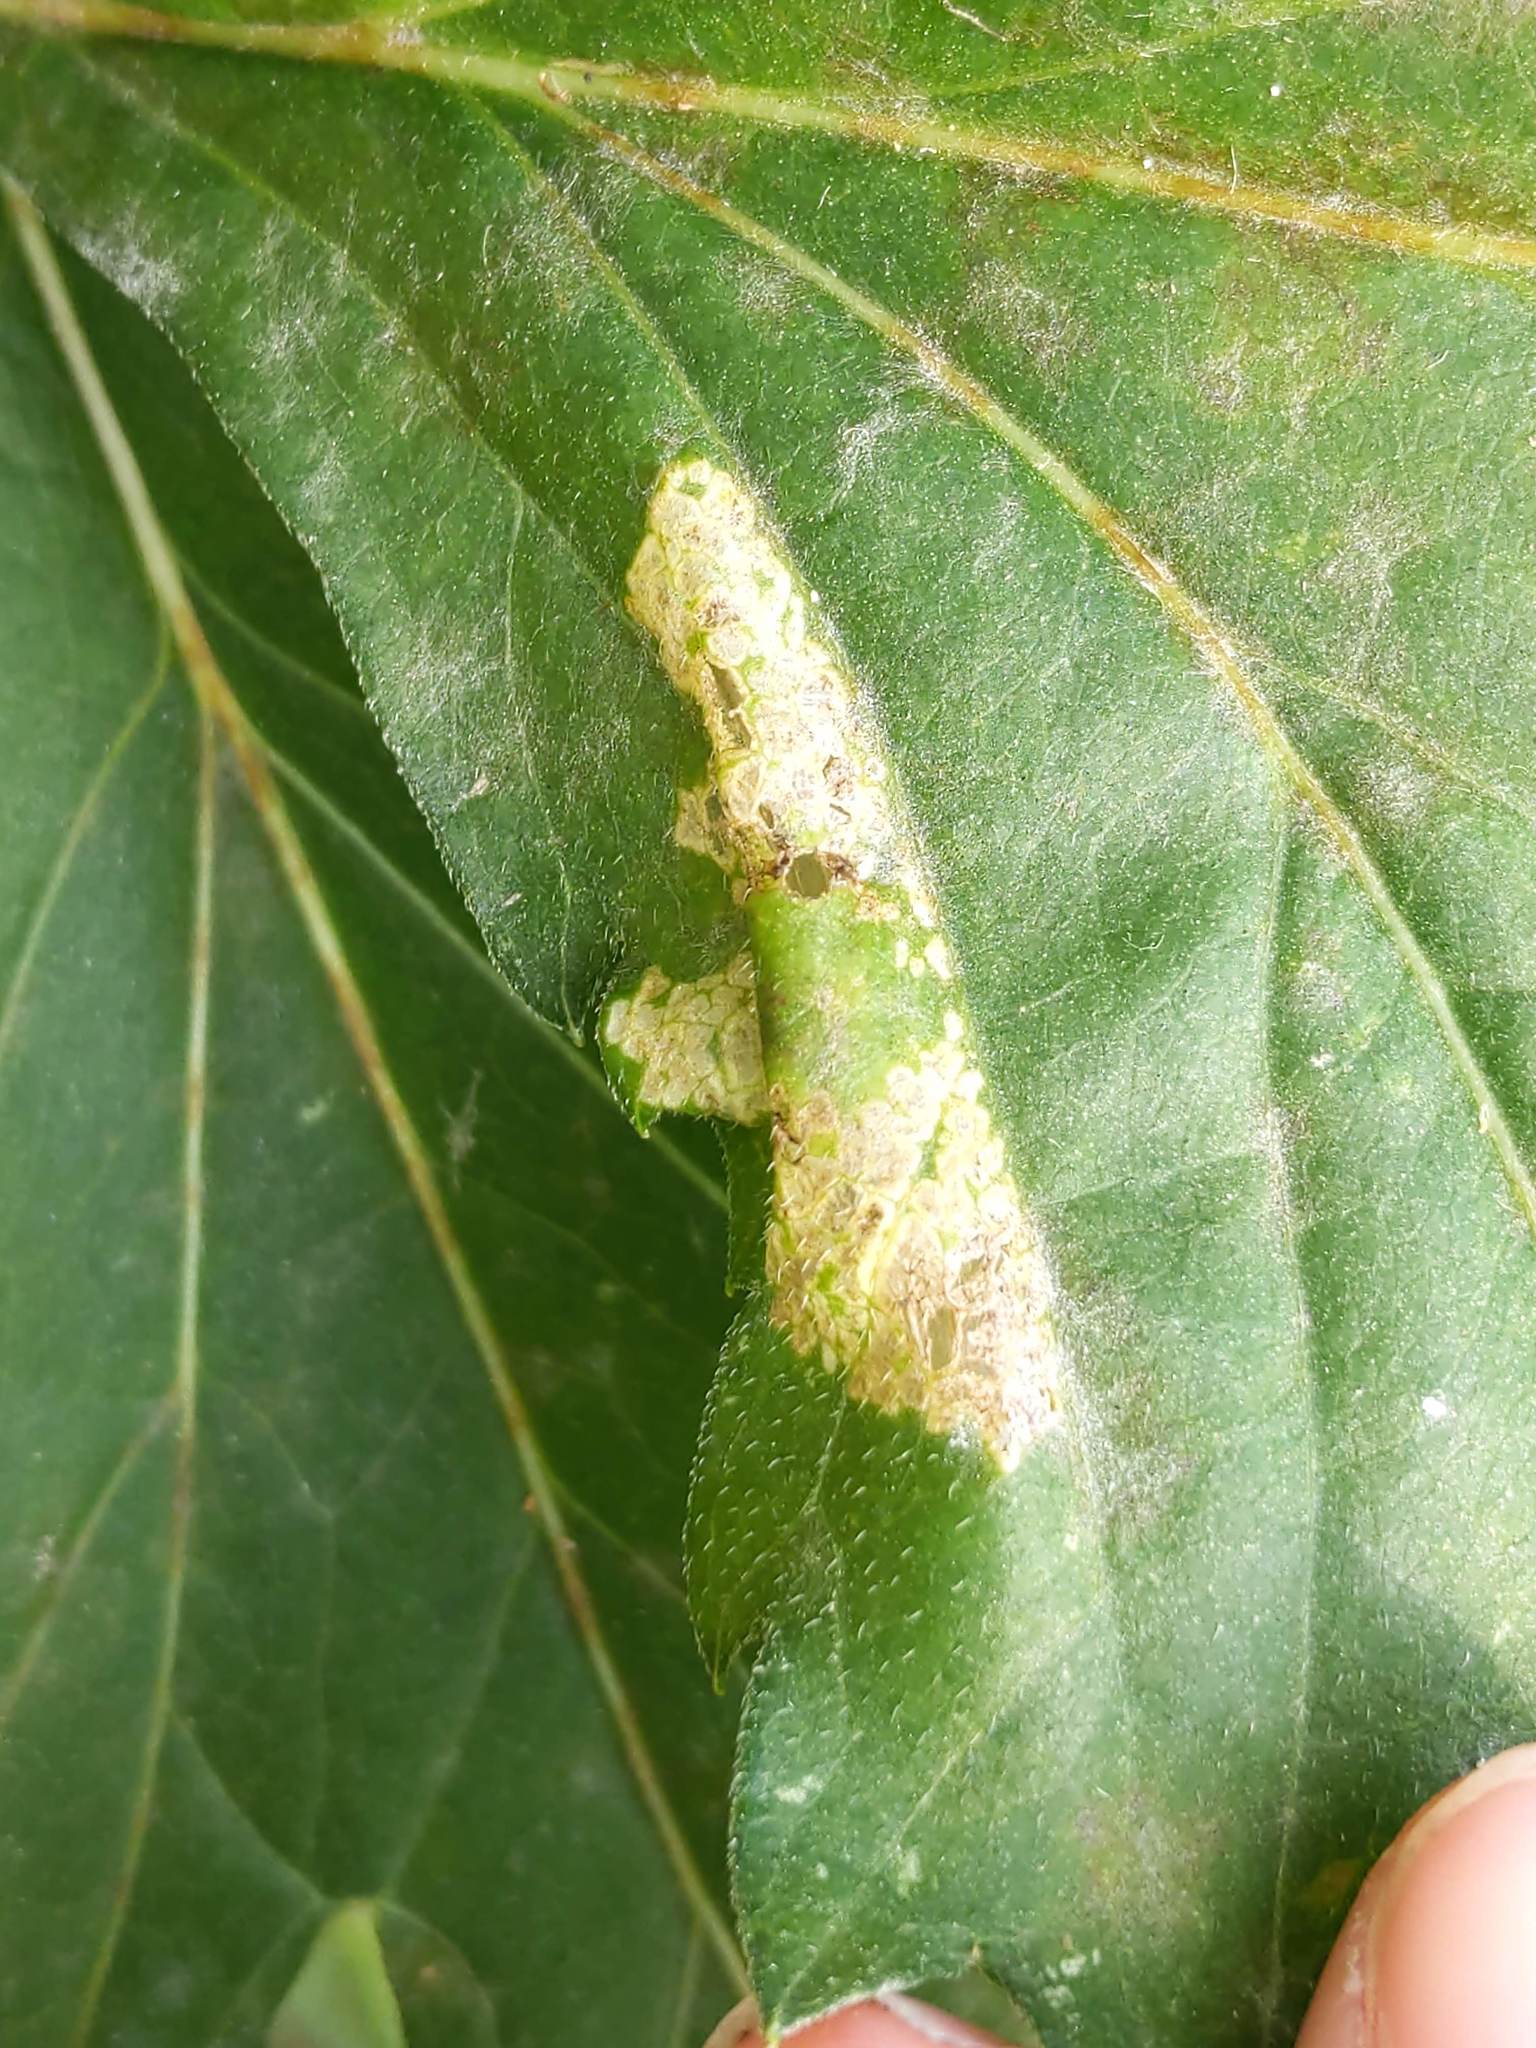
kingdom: Animalia
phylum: Arthropoda
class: Insecta
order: Lepidoptera
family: Gracillariidae
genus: Leucospilapteryx
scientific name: Leucospilapteryx venustella
